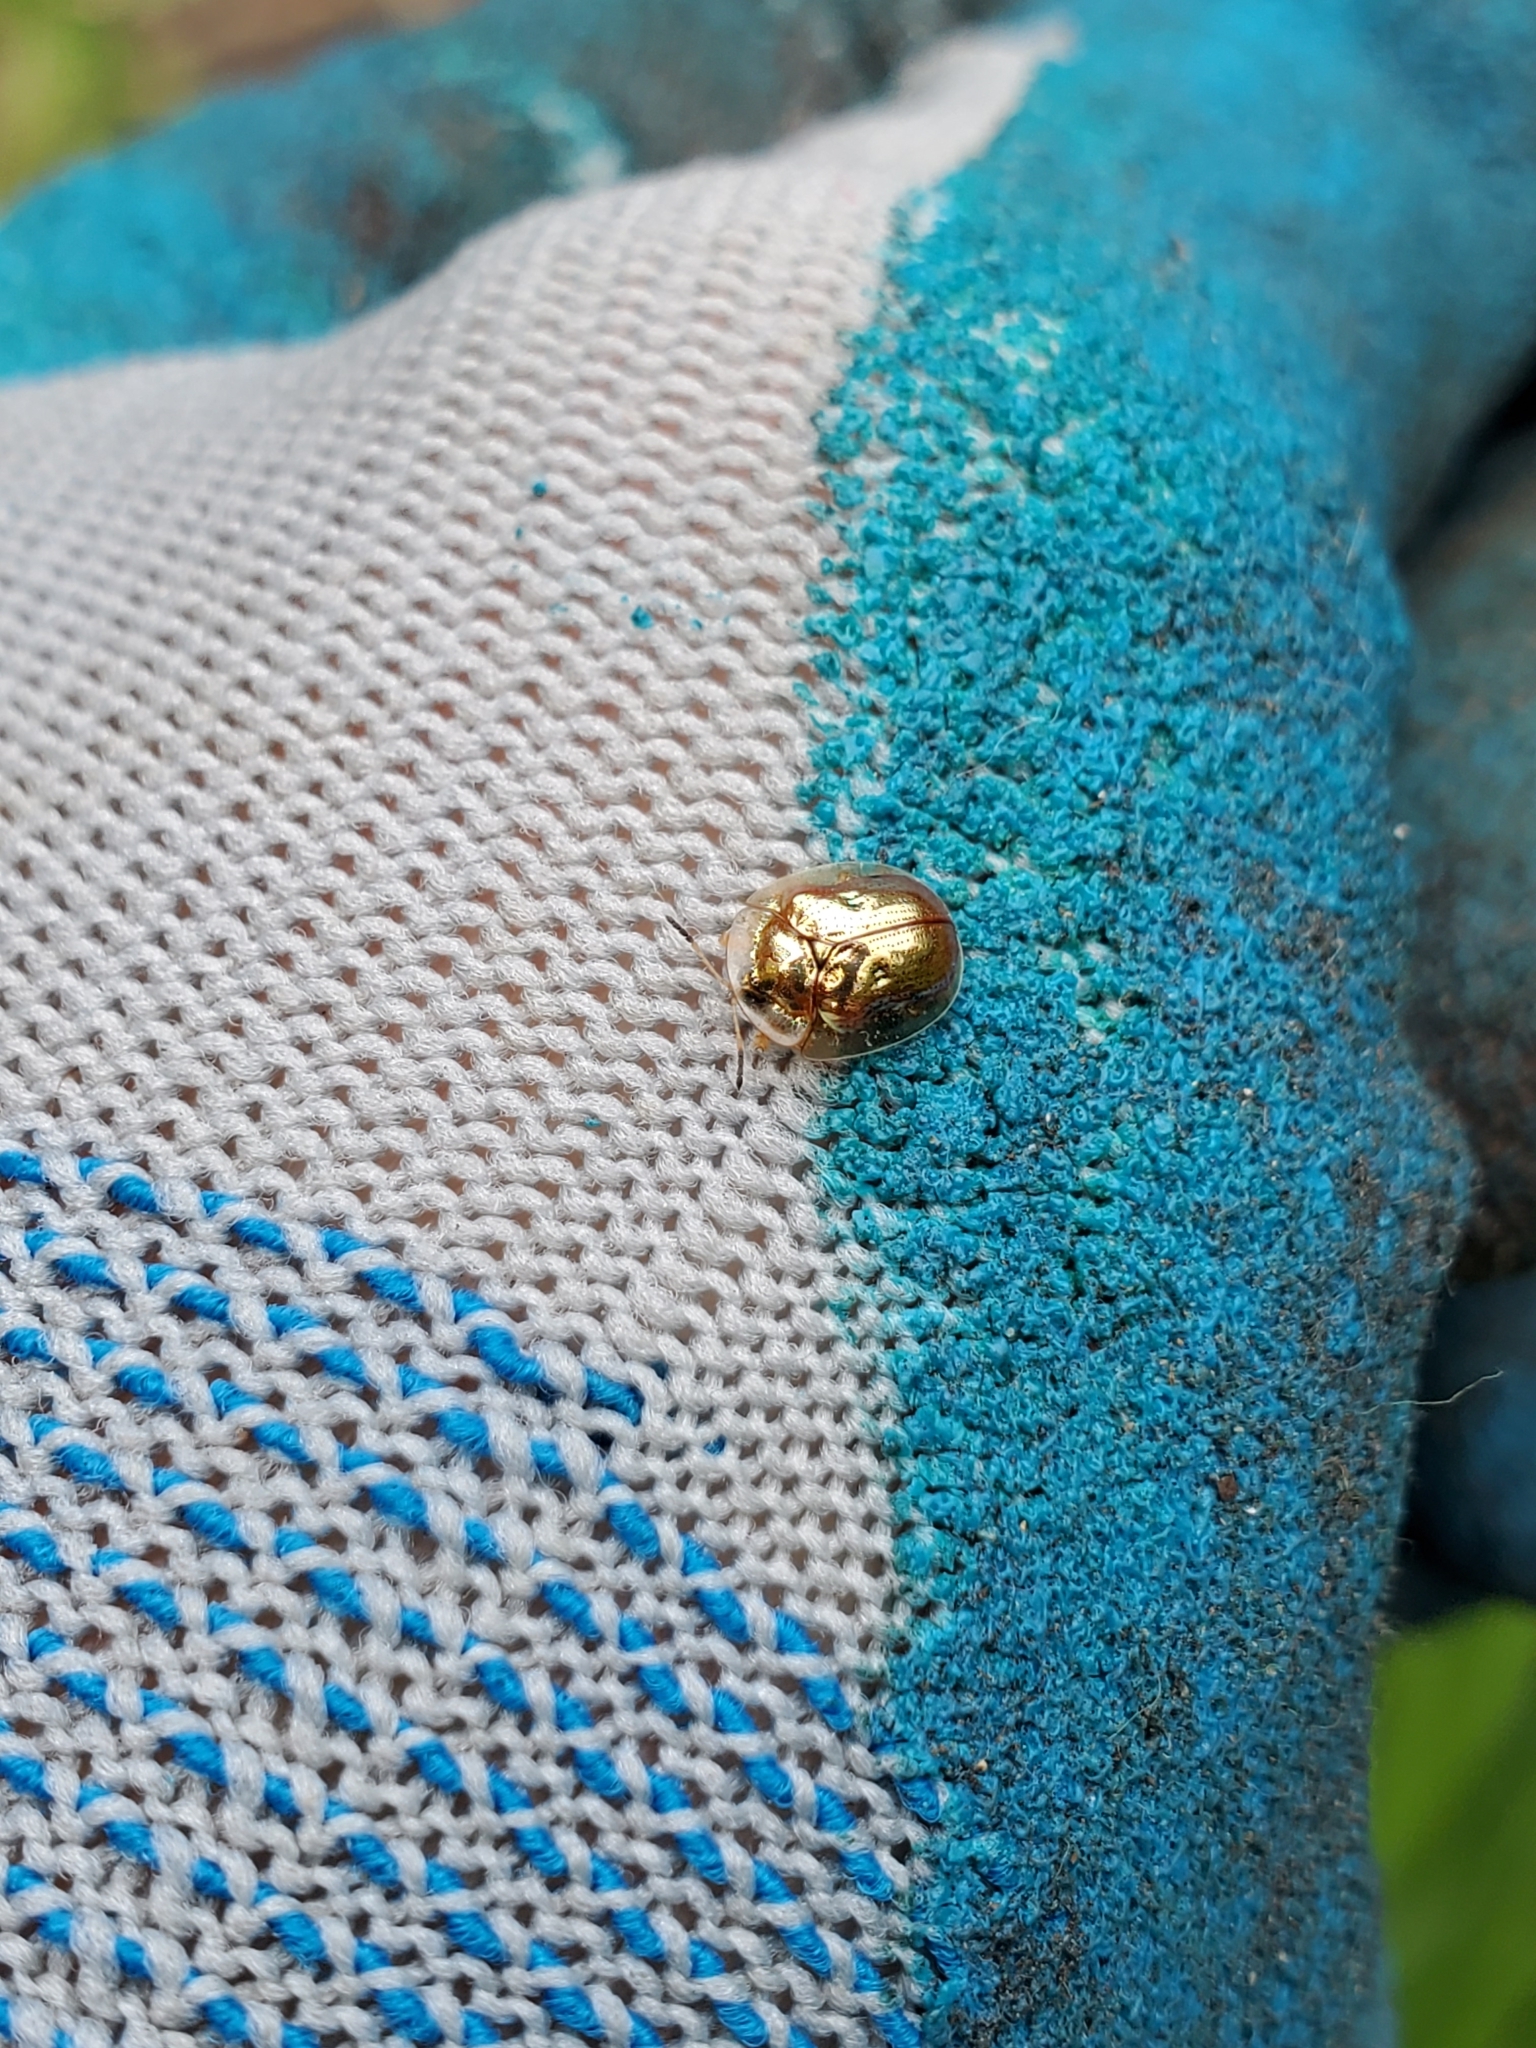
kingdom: Animalia
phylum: Arthropoda
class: Insecta
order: Coleoptera
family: Chrysomelidae
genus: Charidotella
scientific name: Charidotella sexpunctata
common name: Golden tortoise beetle
